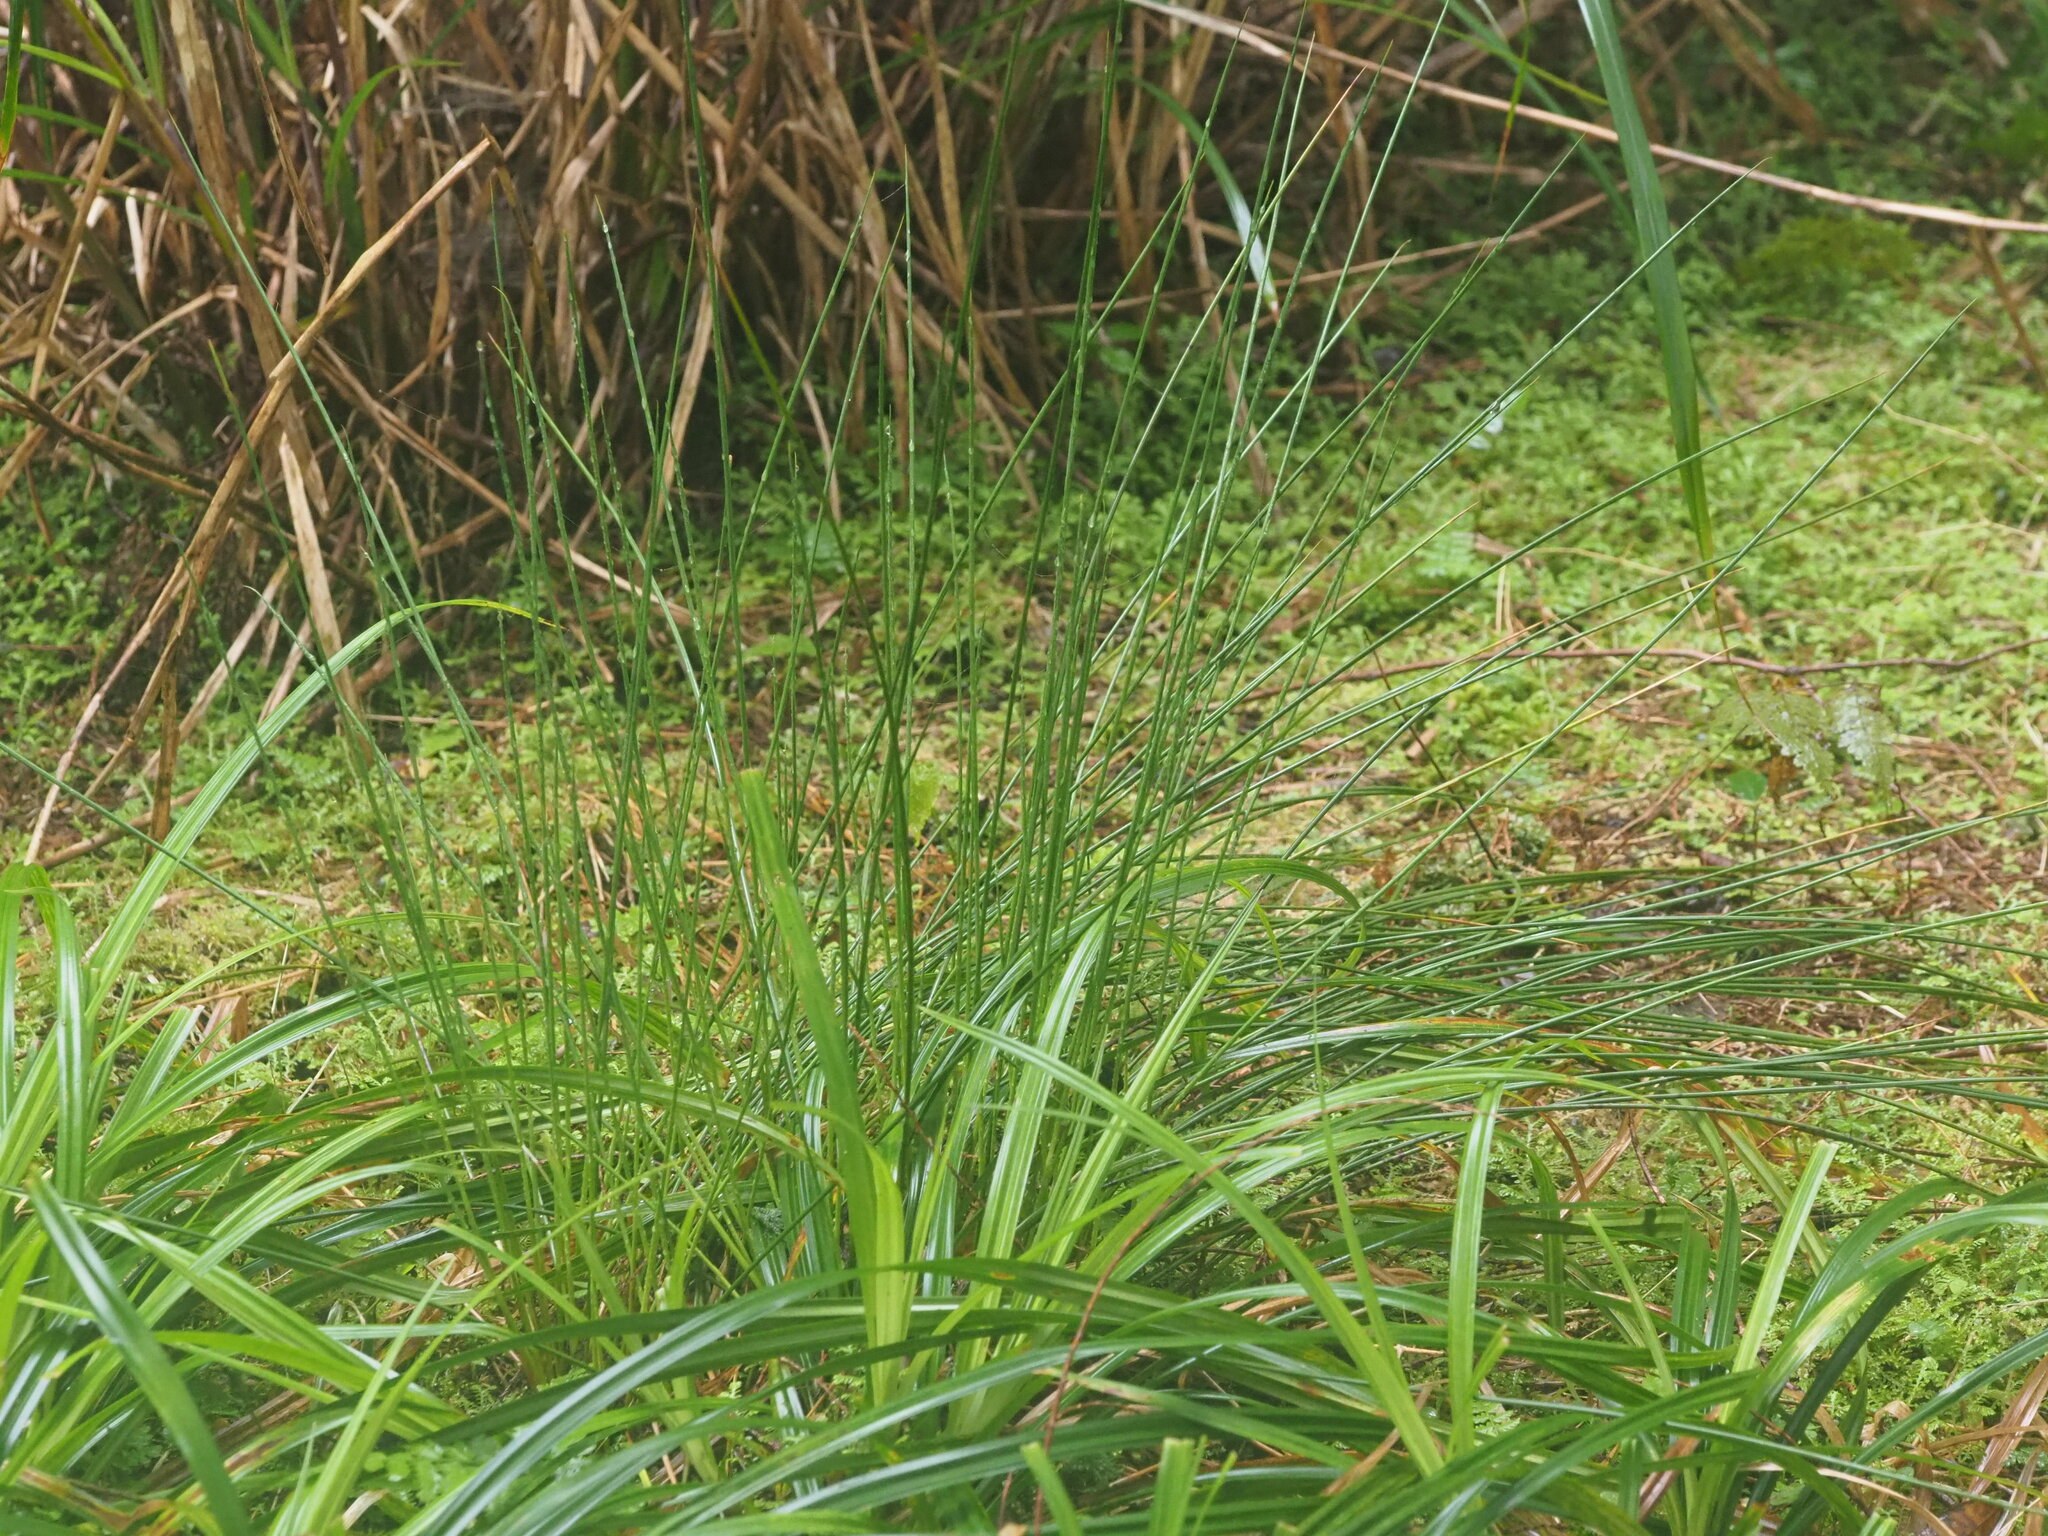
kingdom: Plantae
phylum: Tracheophyta
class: Liliopsida
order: Poales
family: Juncaceae
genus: Juncus
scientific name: Juncus effusus
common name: Soft rush
